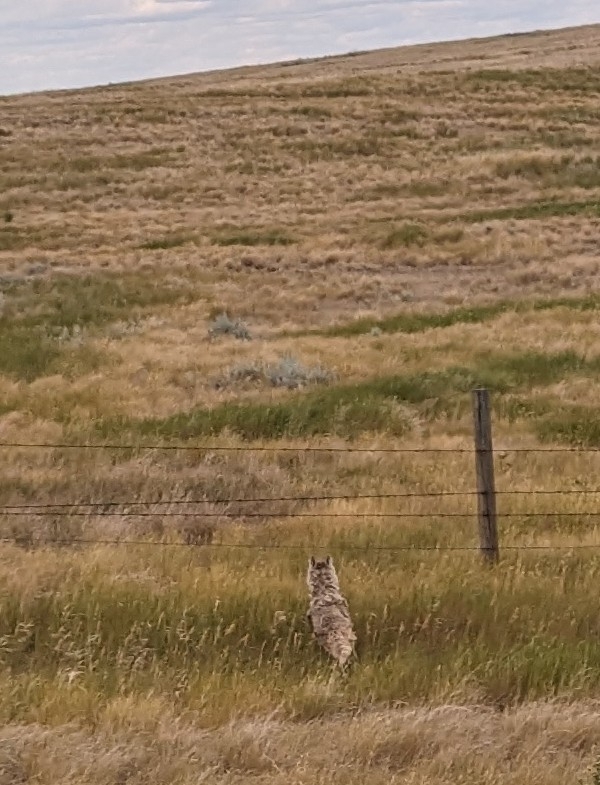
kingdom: Animalia
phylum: Chordata
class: Mammalia
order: Carnivora
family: Canidae
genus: Canis
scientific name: Canis latrans
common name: Coyote
